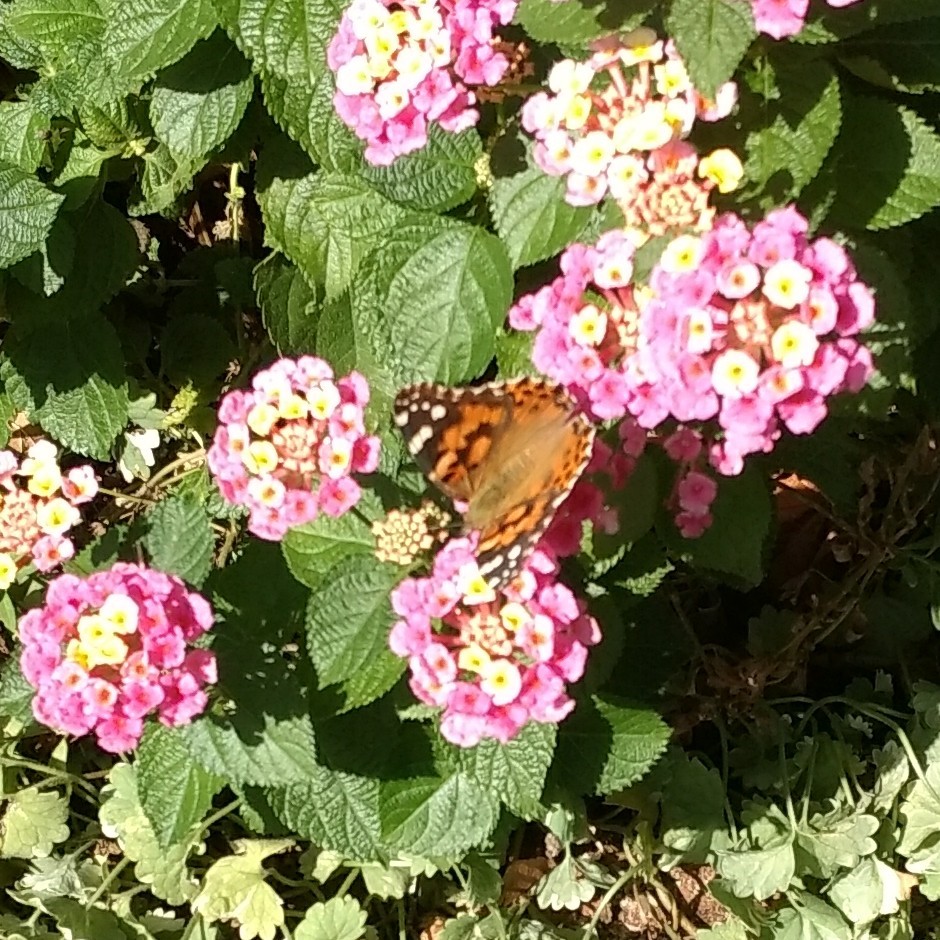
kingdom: Animalia
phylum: Arthropoda
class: Insecta
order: Lepidoptera
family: Nymphalidae
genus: Vanessa
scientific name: Vanessa cardui
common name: Painted lady
